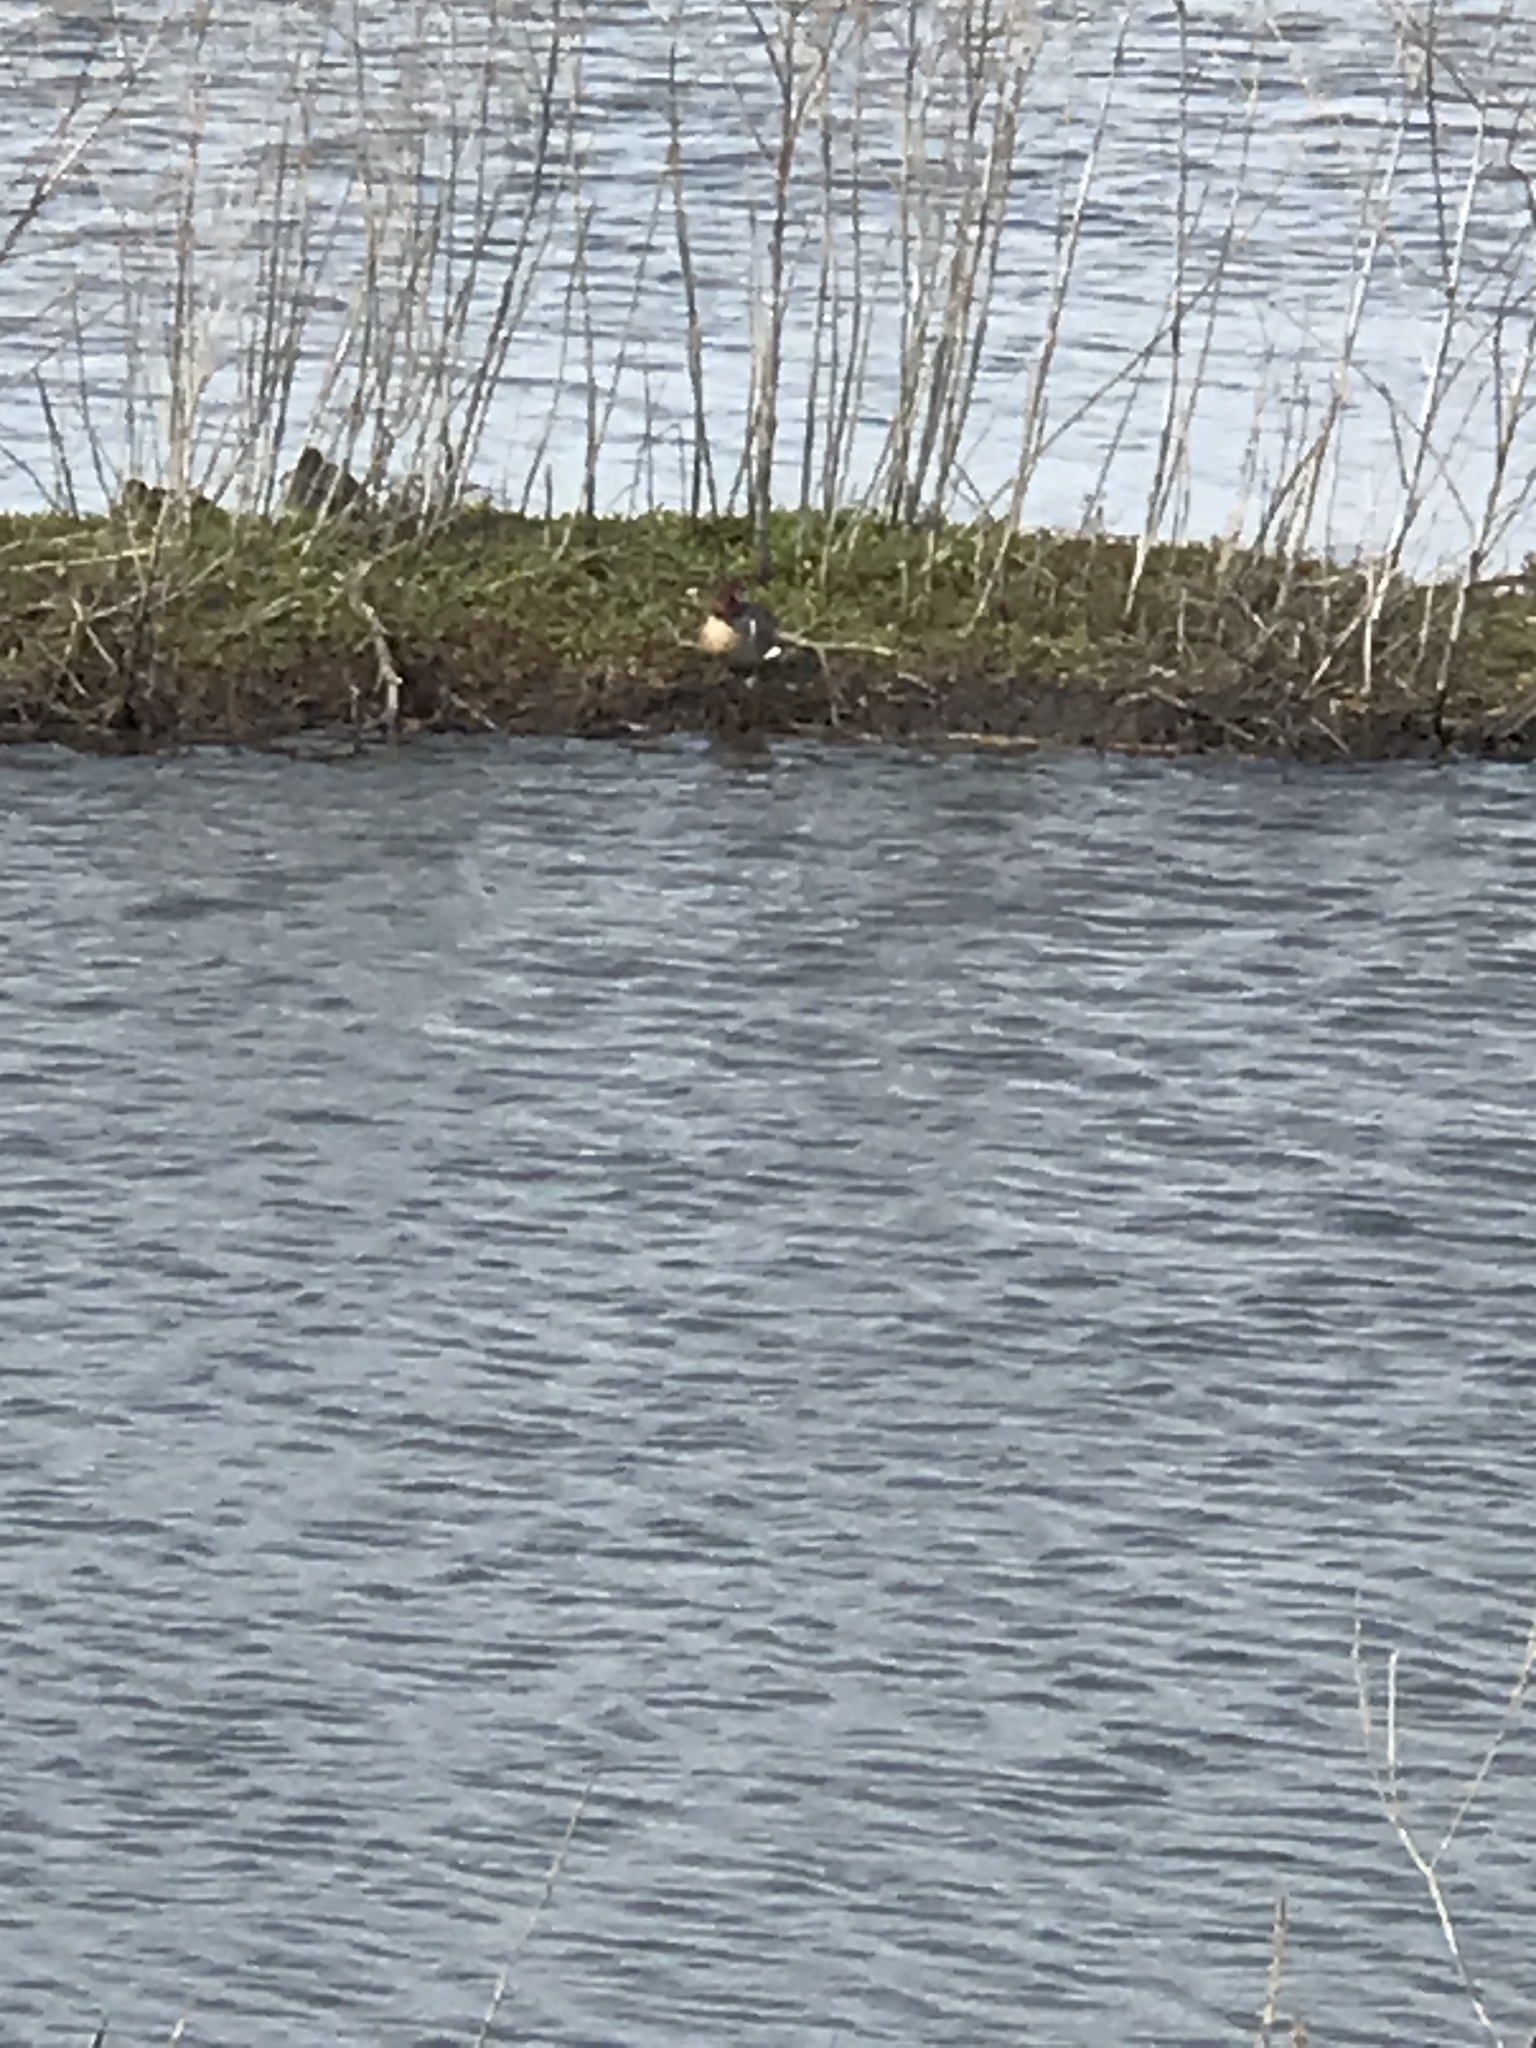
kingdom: Animalia
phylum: Chordata
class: Aves
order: Anseriformes
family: Anatidae
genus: Anas
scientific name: Anas crecca
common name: Eurasian teal
